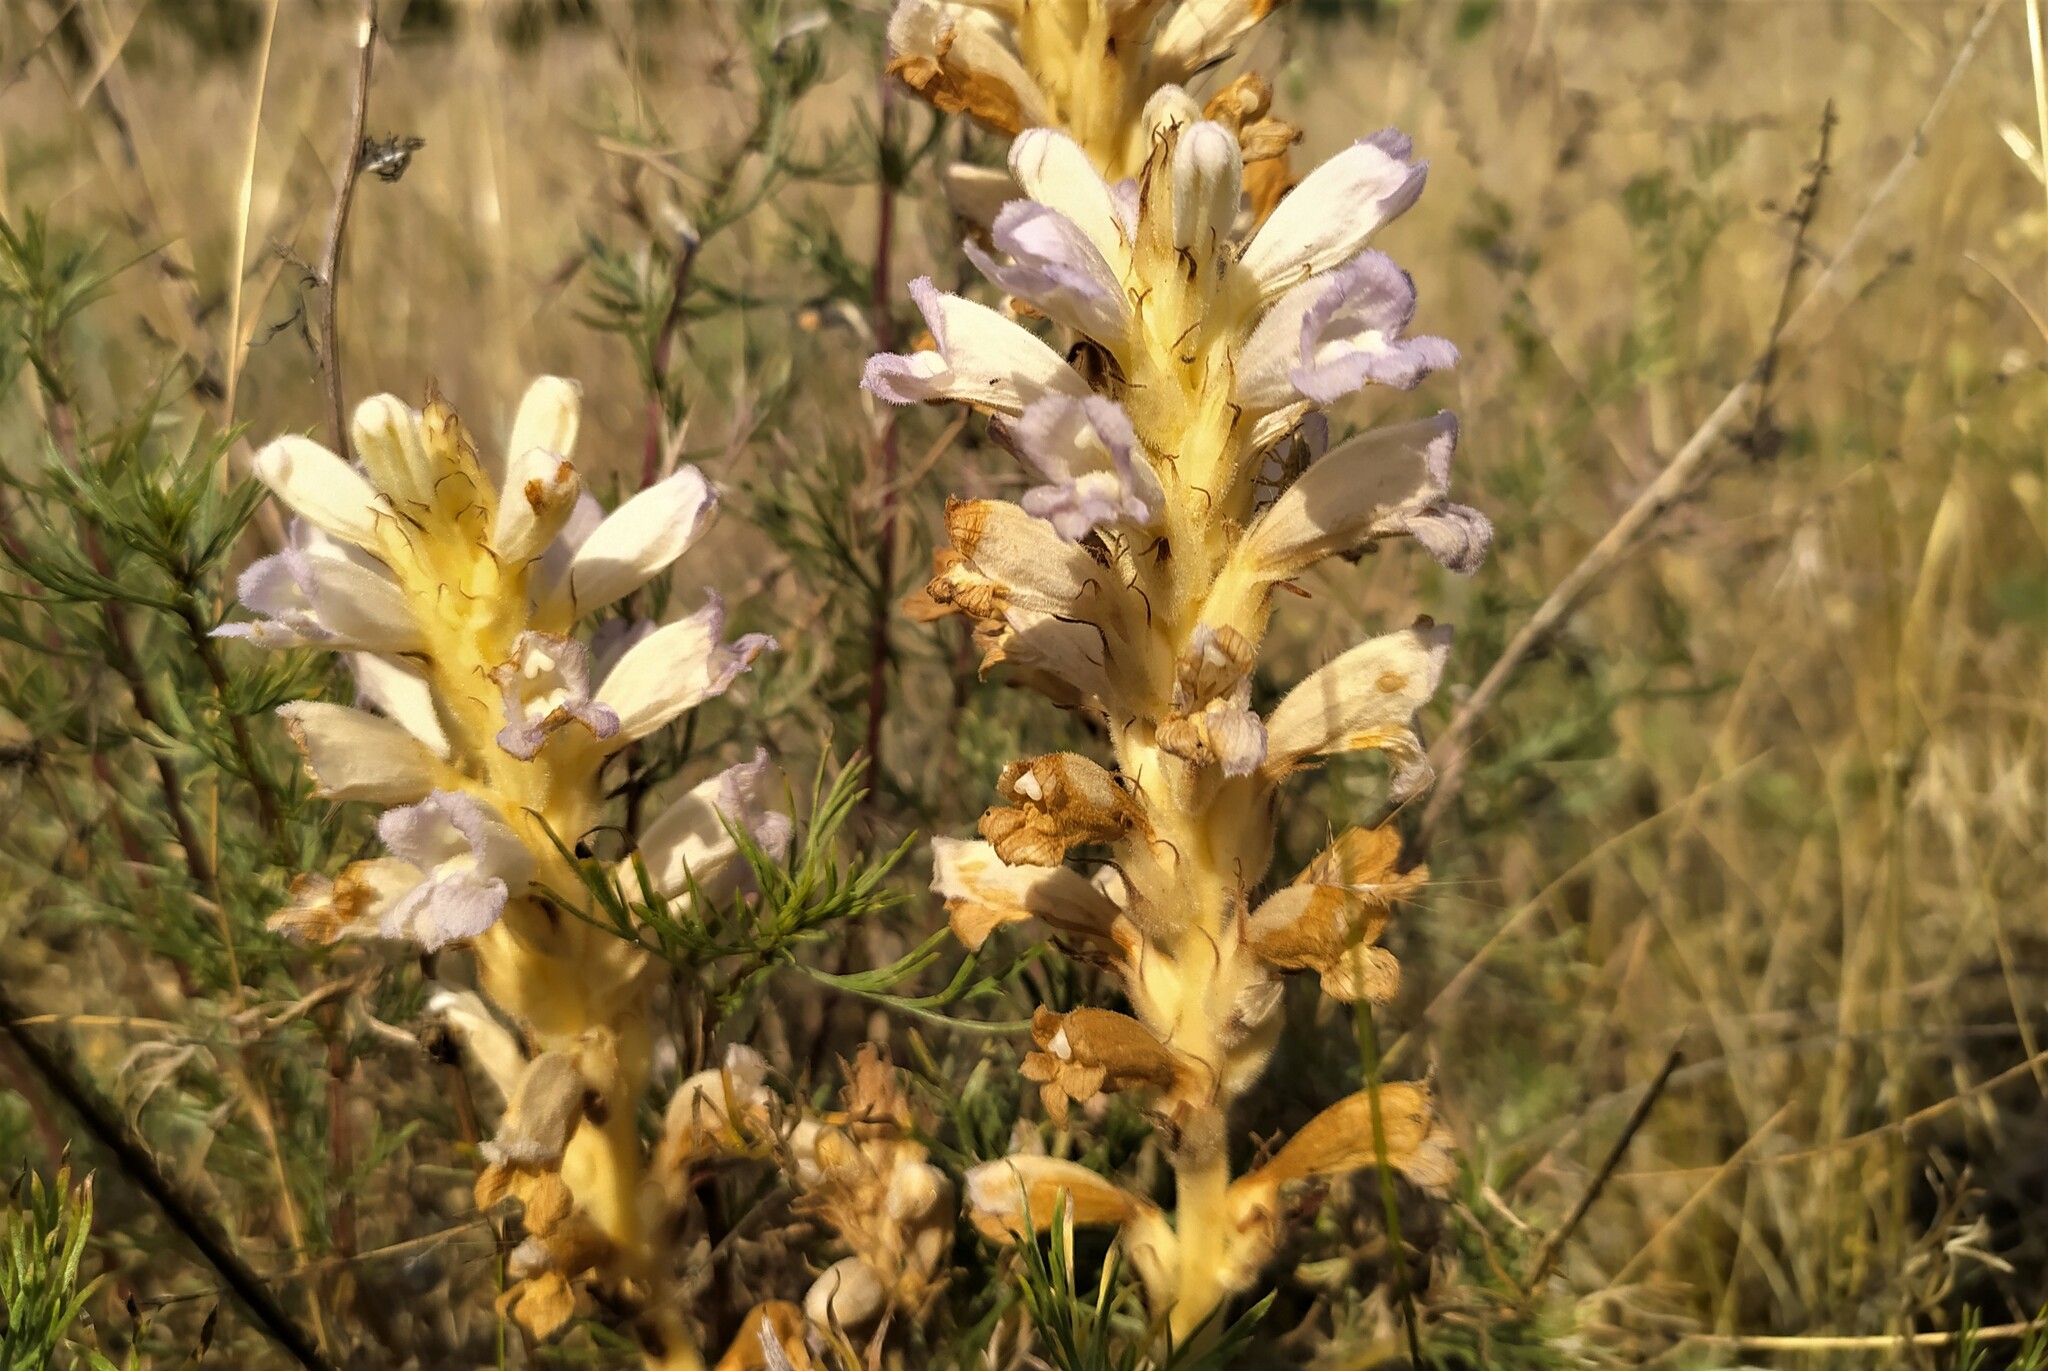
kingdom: Plantae
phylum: Tracheophyta
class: Magnoliopsida
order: Lamiales
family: Orobanchaceae
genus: Phelipanche
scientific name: Phelipanche arenaria
